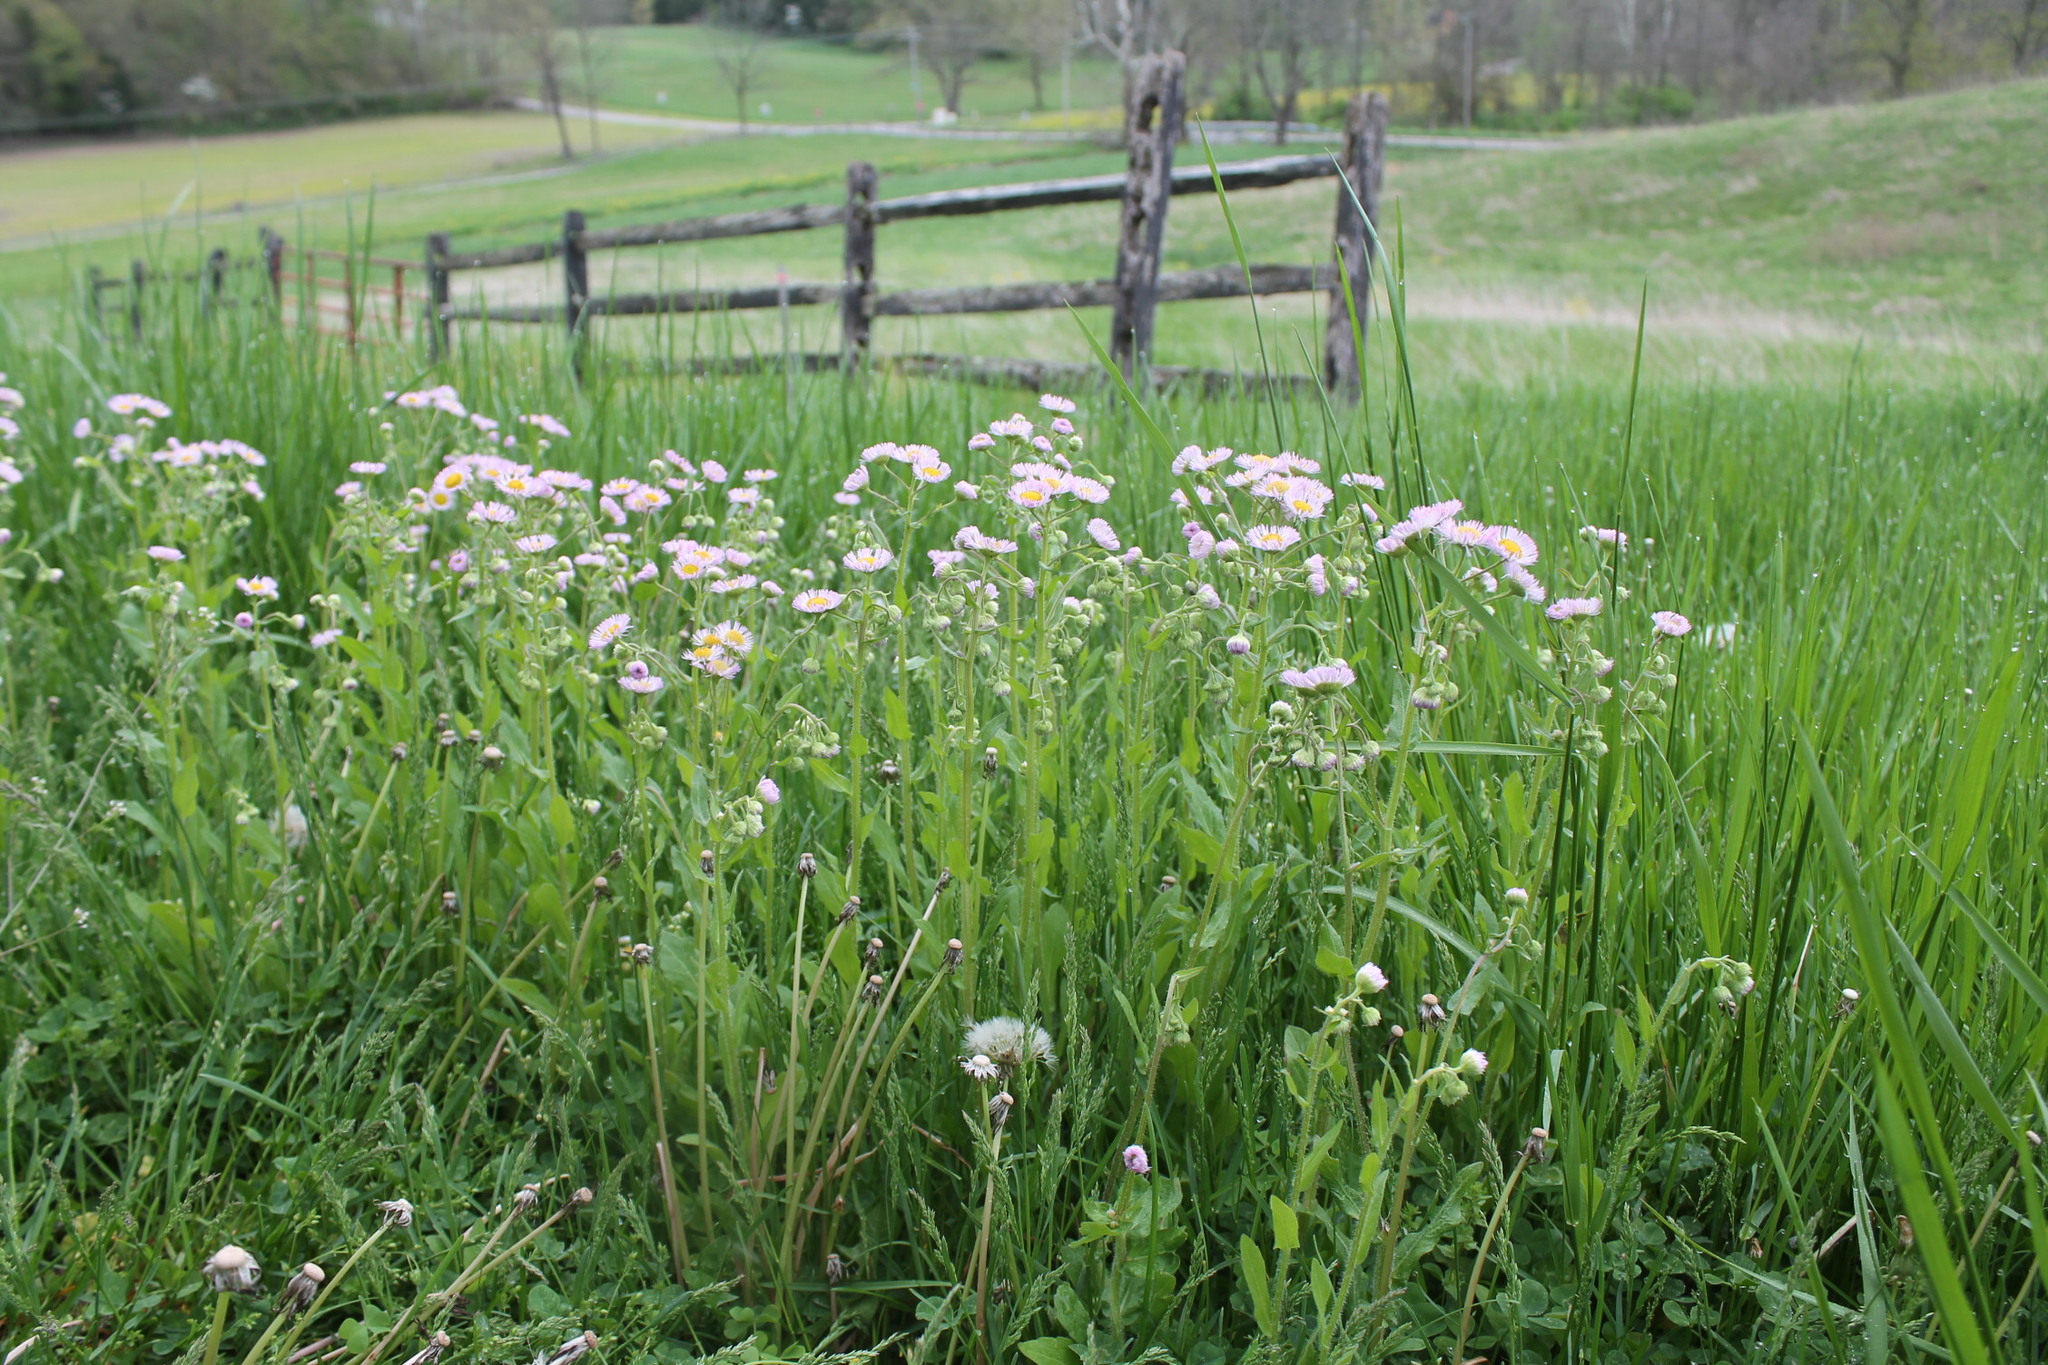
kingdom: Plantae
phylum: Tracheophyta
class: Magnoliopsida
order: Asterales
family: Asteraceae
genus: Erigeron
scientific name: Erigeron philadelphicus
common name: Robin's-plantain
